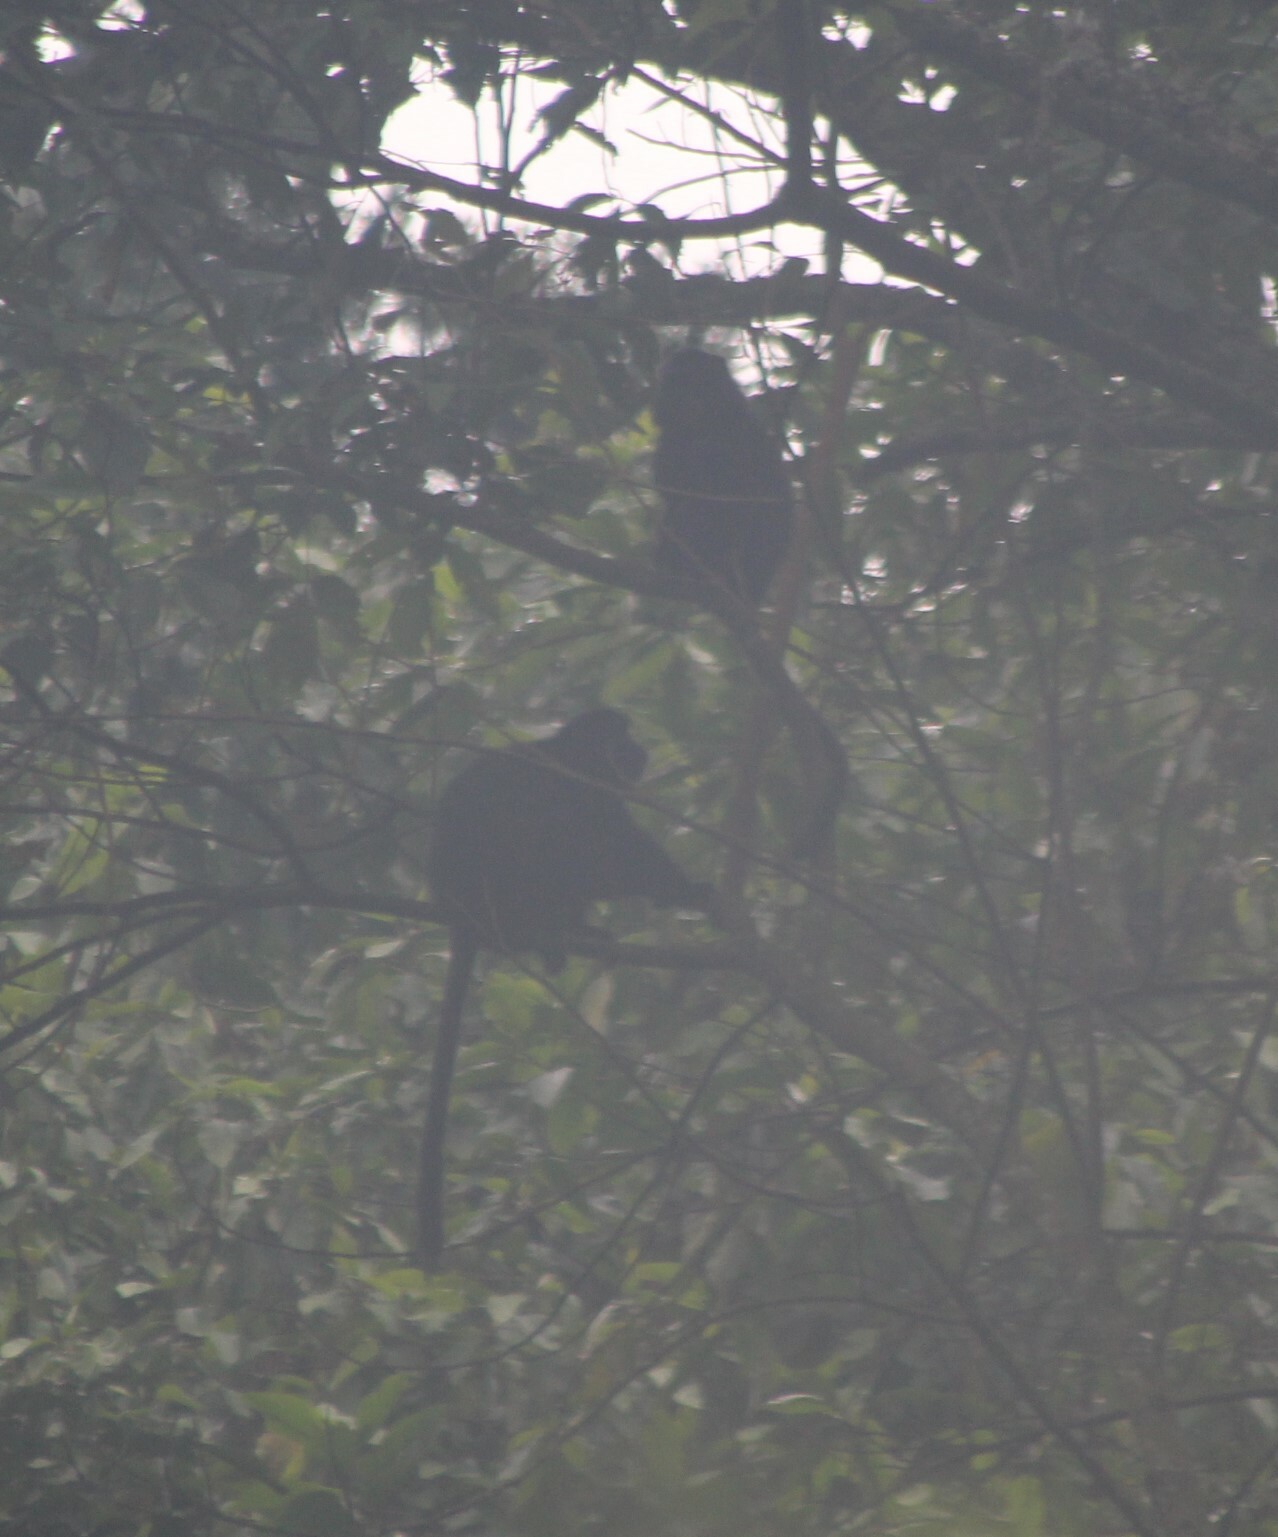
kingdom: Animalia
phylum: Chordata
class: Mammalia
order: Primates
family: Cercopithecidae
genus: Cercopithecus
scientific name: Cercopithecus mitis
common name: Blue monkey
